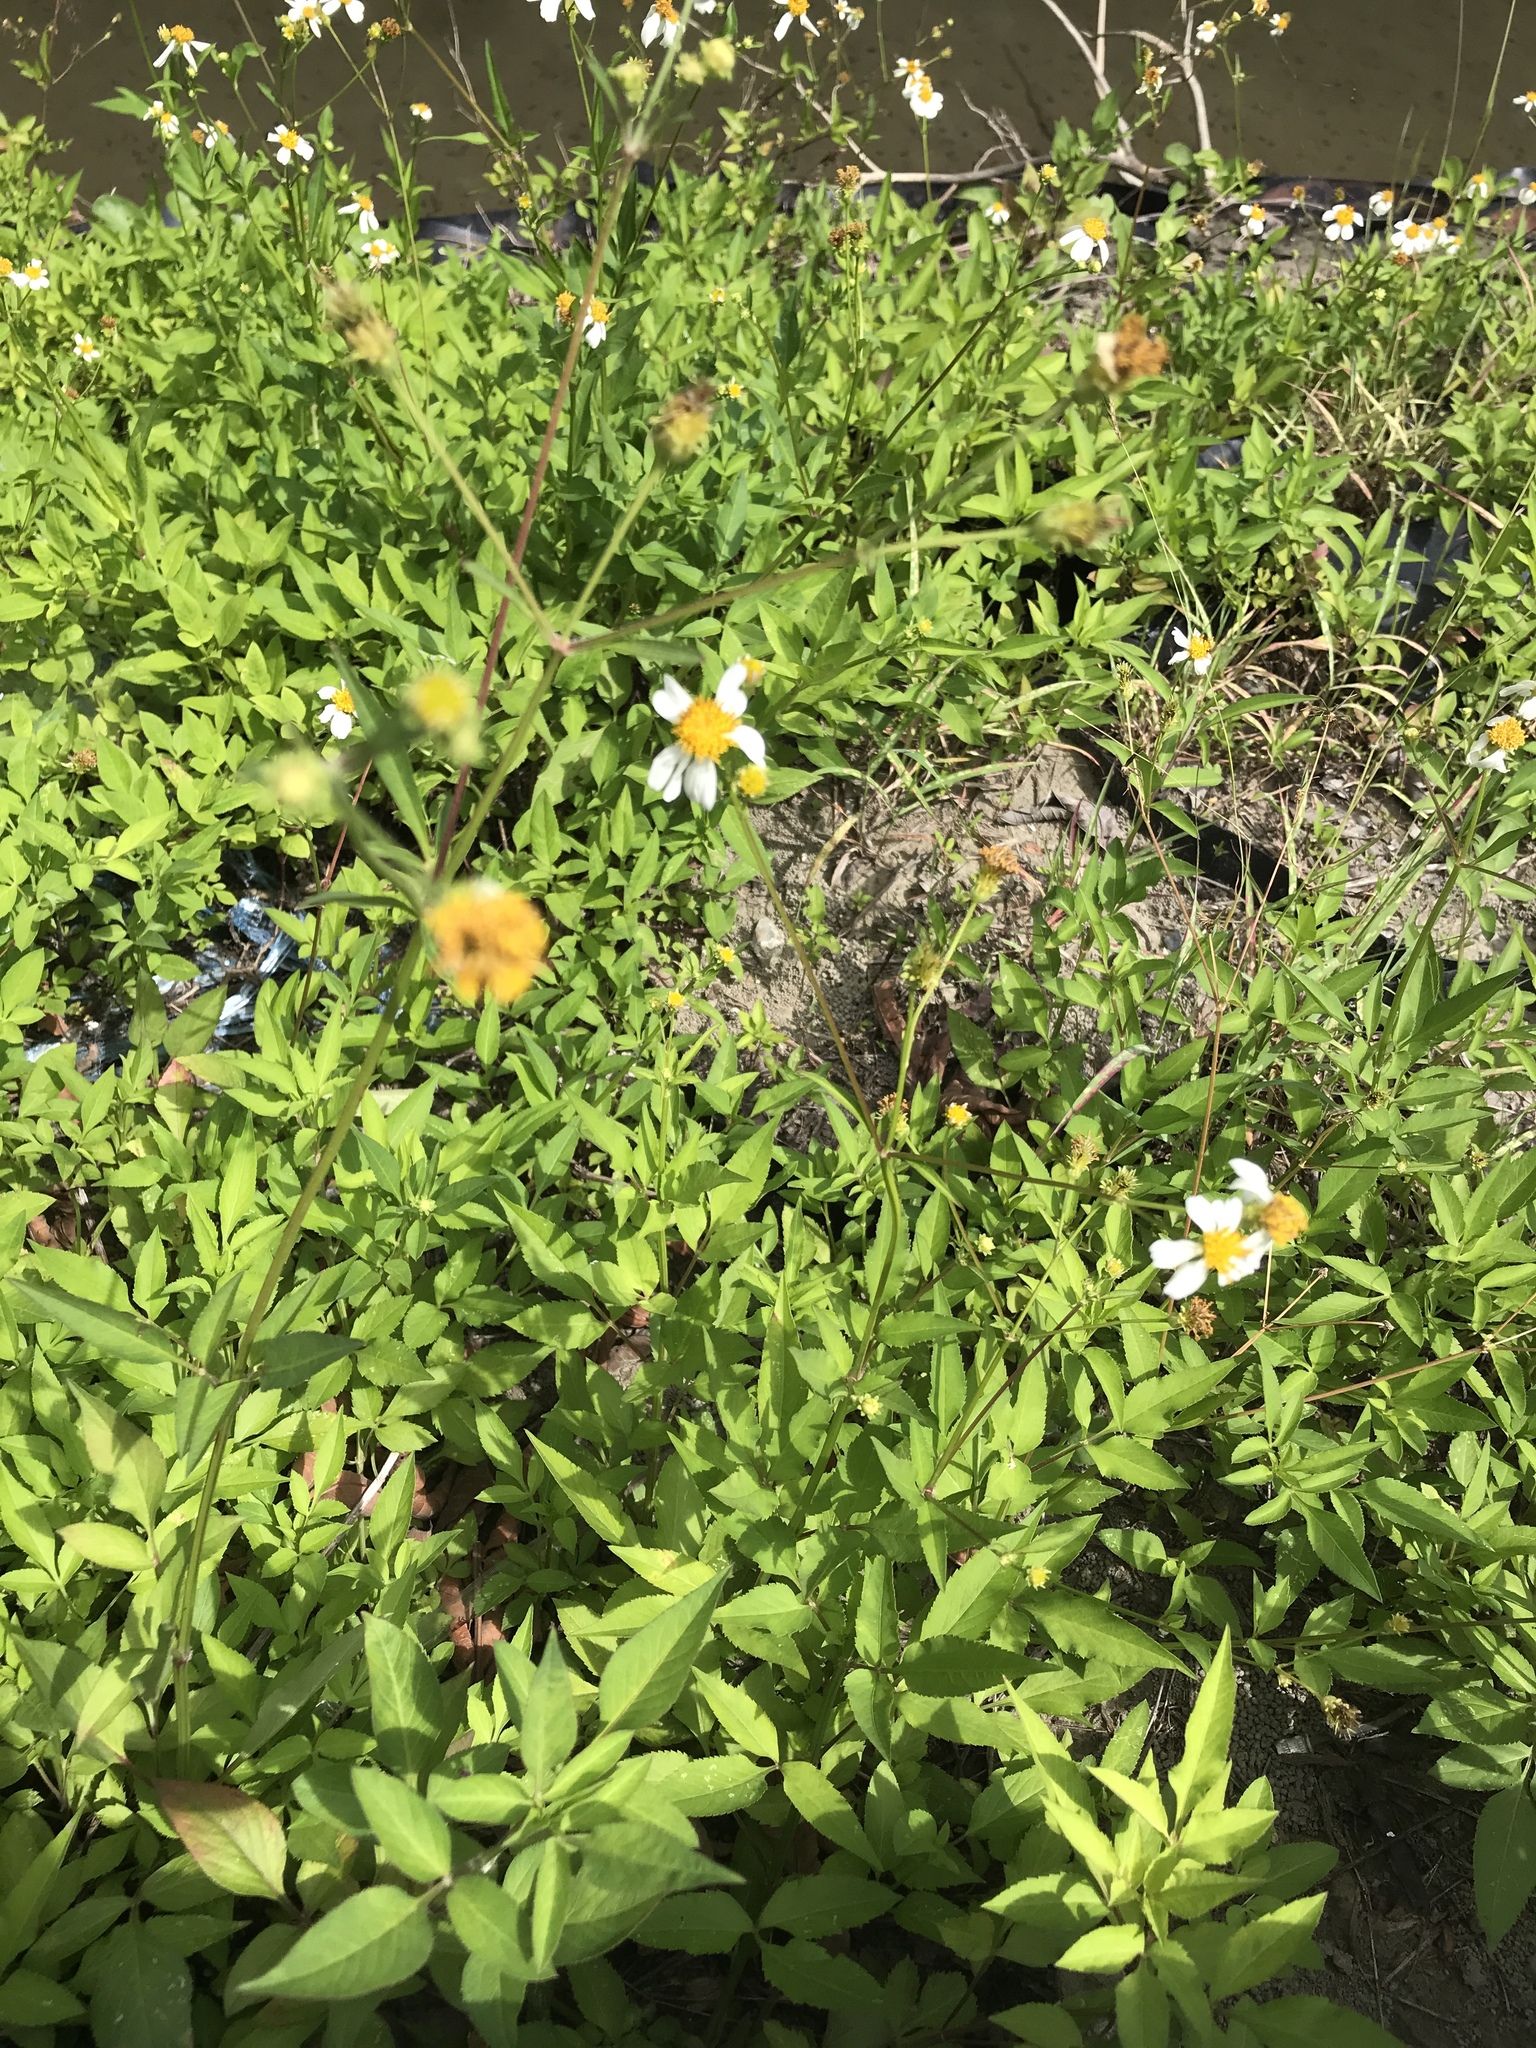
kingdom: Plantae
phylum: Tracheophyta
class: Magnoliopsida
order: Asterales
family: Asteraceae
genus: Bidens
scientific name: Bidens alba
